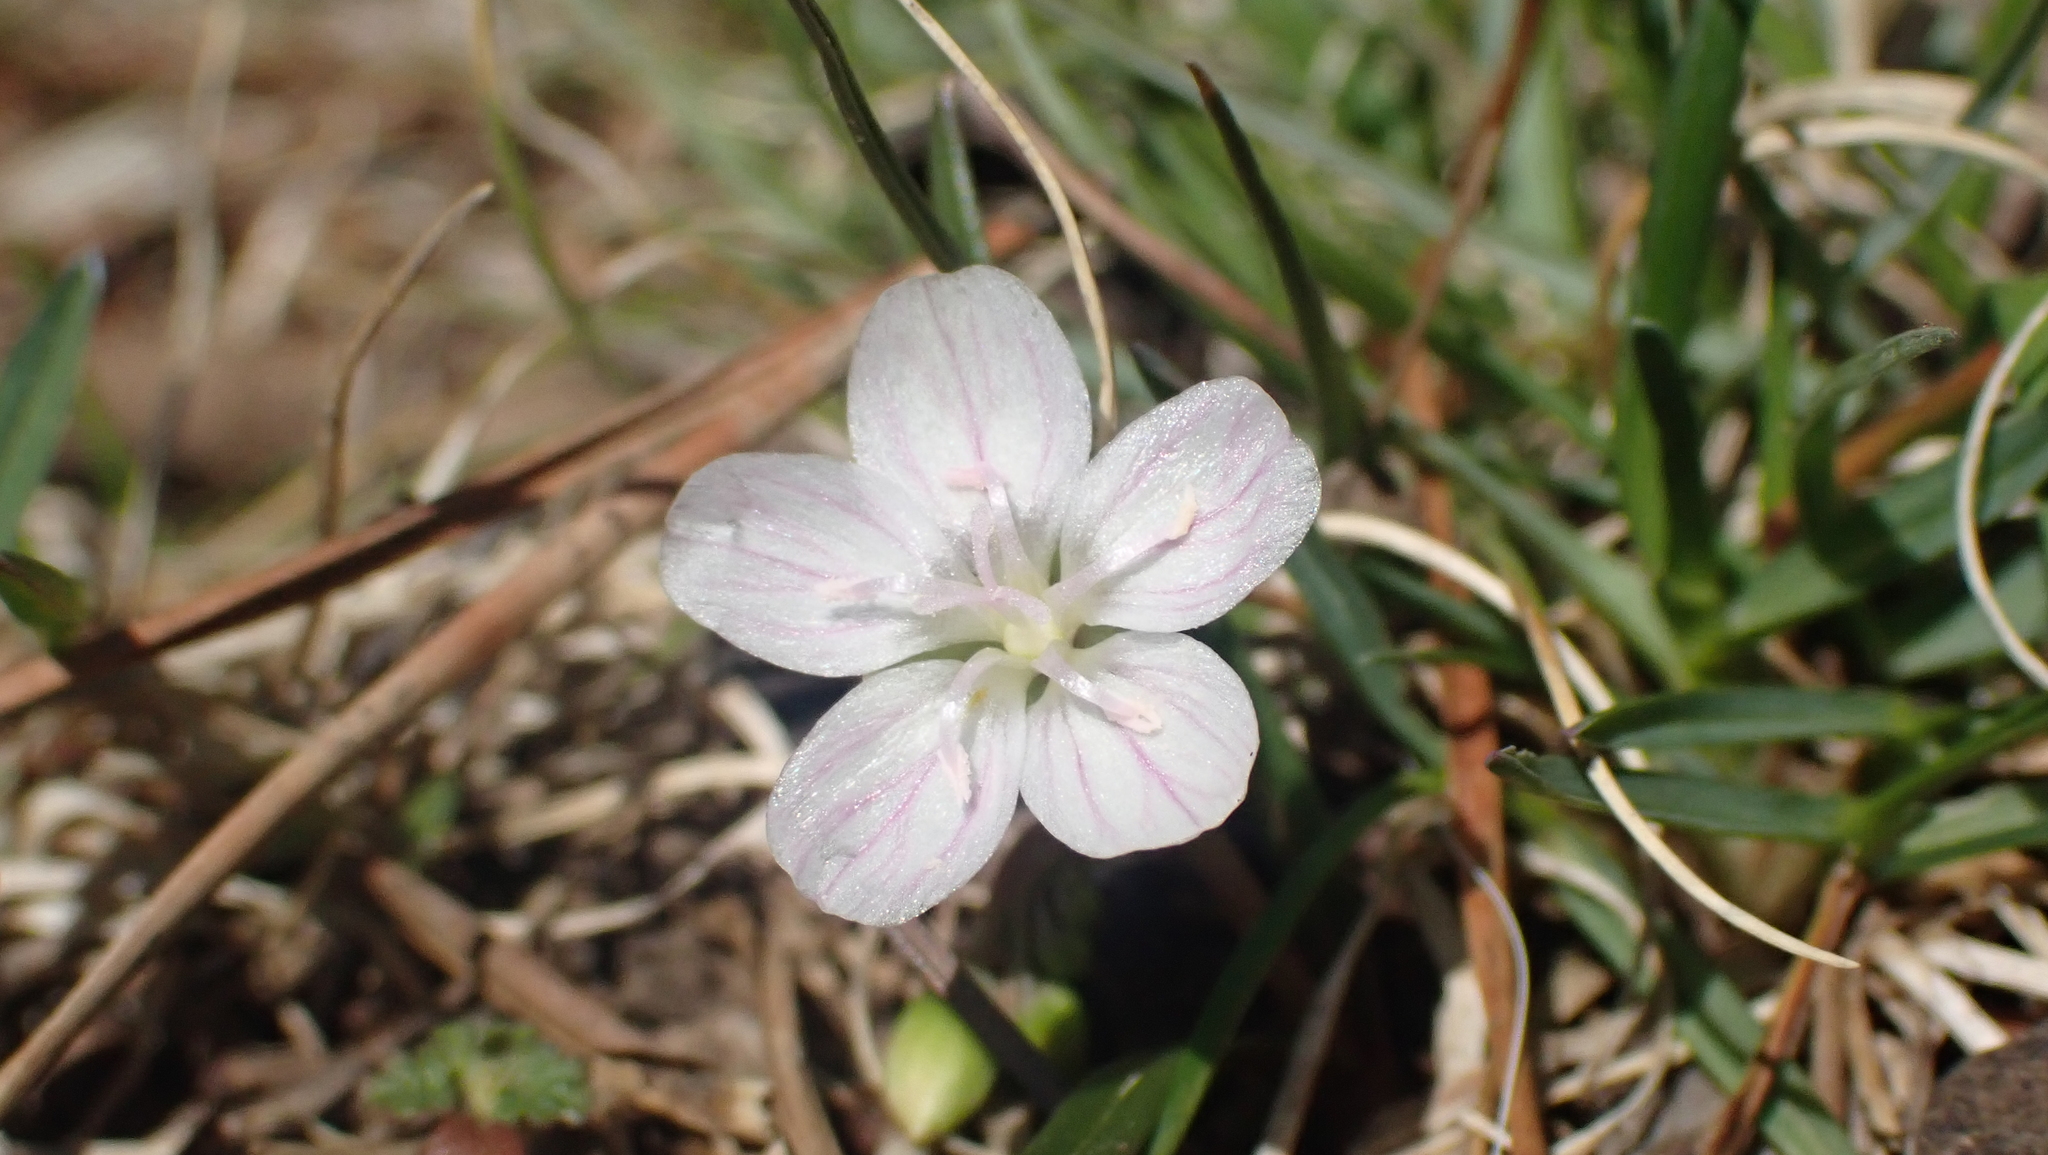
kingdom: Plantae
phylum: Tracheophyta
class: Magnoliopsida
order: Caryophyllales
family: Montiaceae
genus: Claytonia
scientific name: Claytonia virginica
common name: Virginia springbeauty
